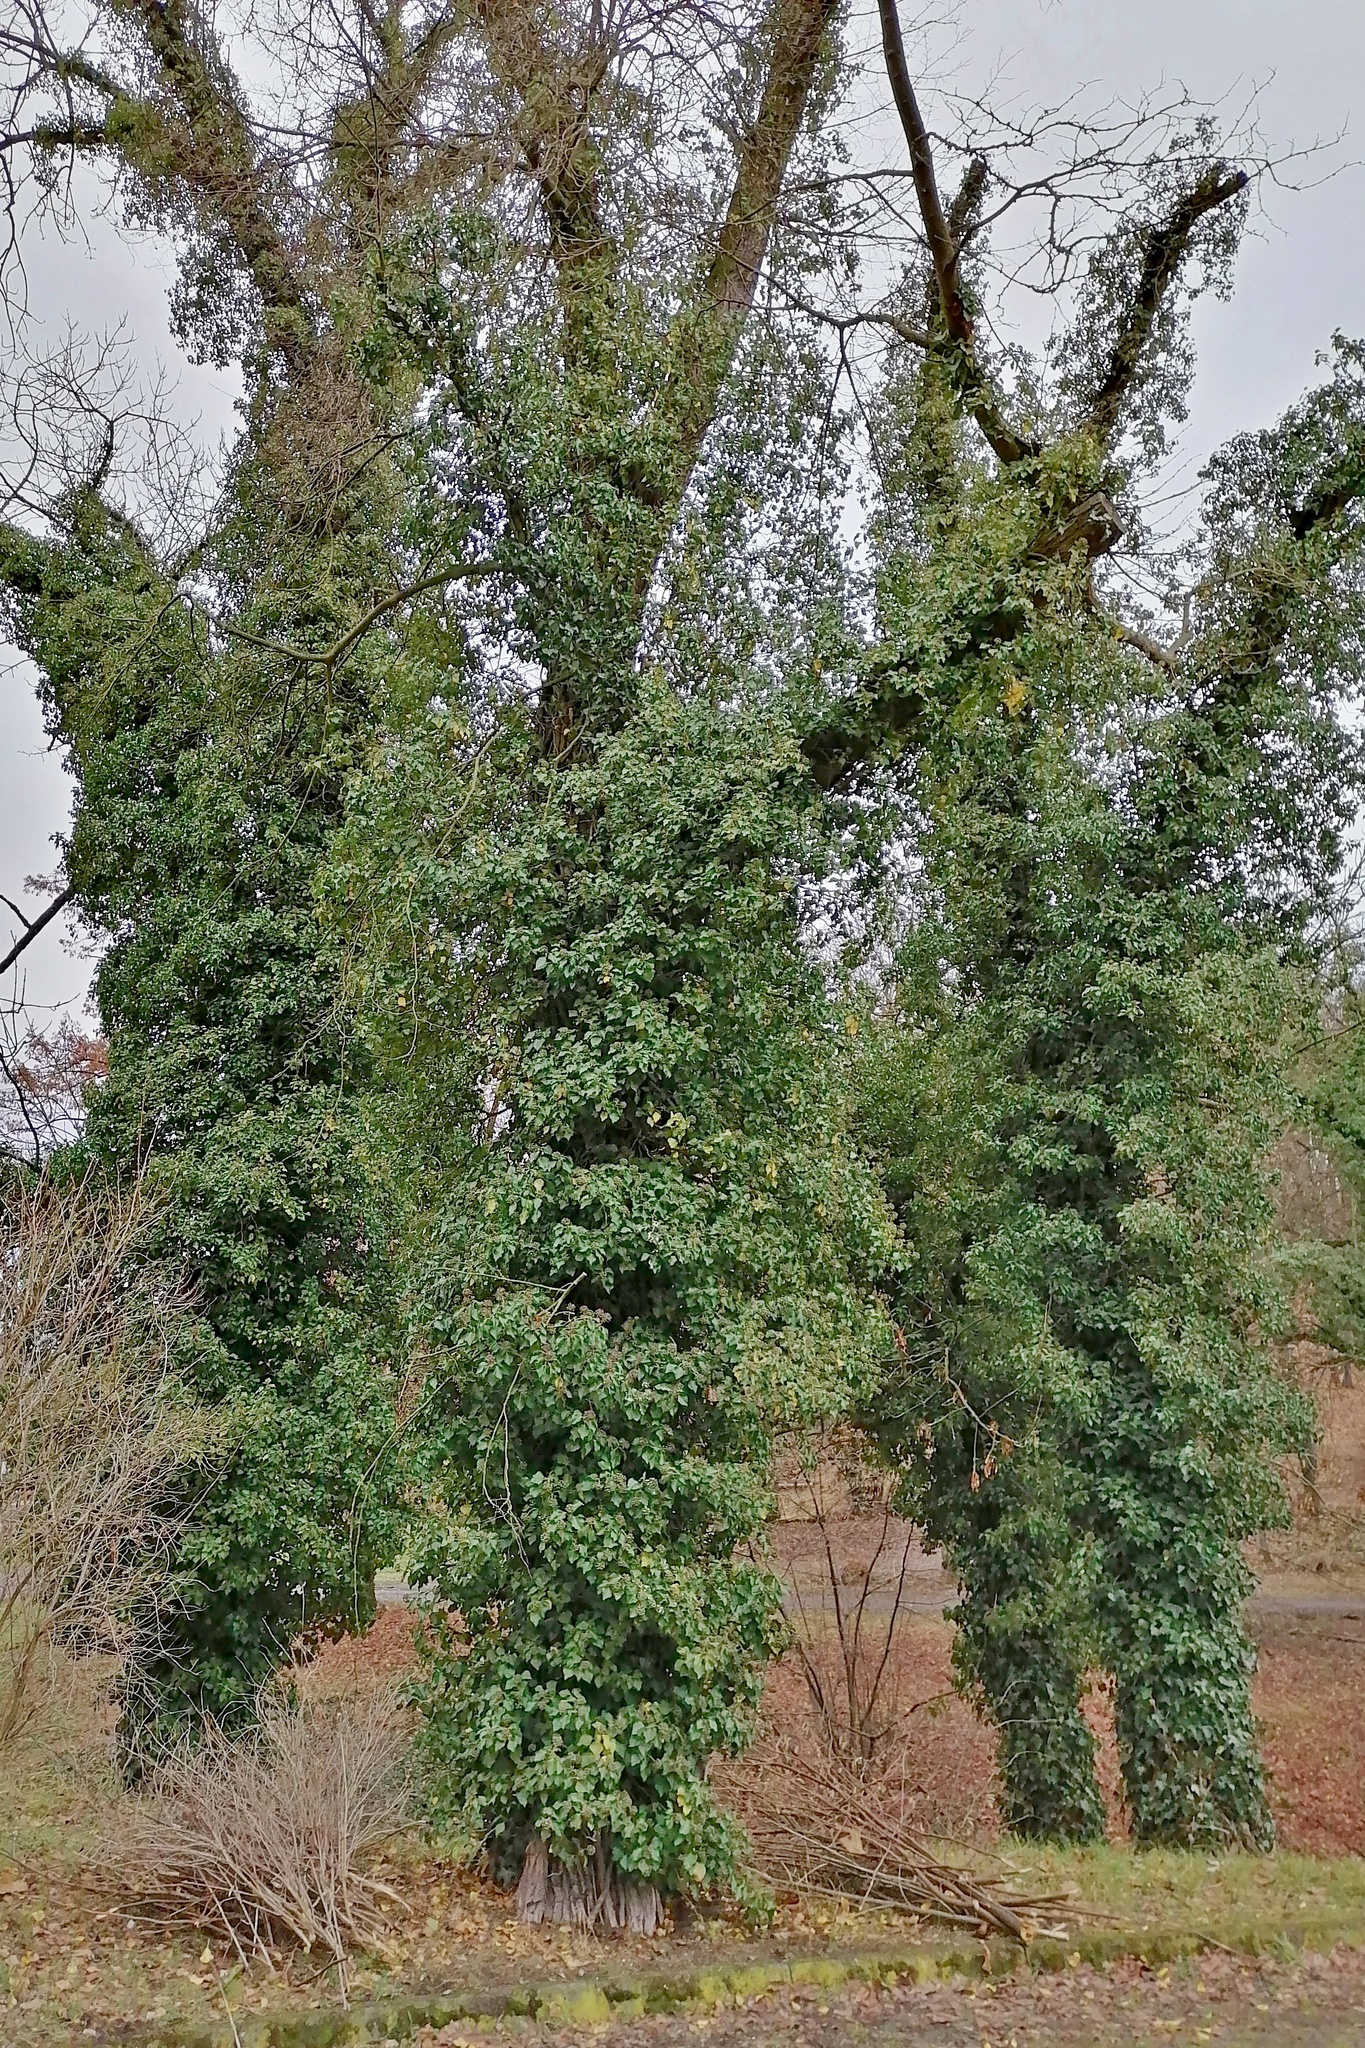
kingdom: Plantae
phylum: Tracheophyta
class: Magnoliopsida
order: Apiales
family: Araliaceae
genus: Hedera
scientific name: Hedera helix
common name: Ivy
